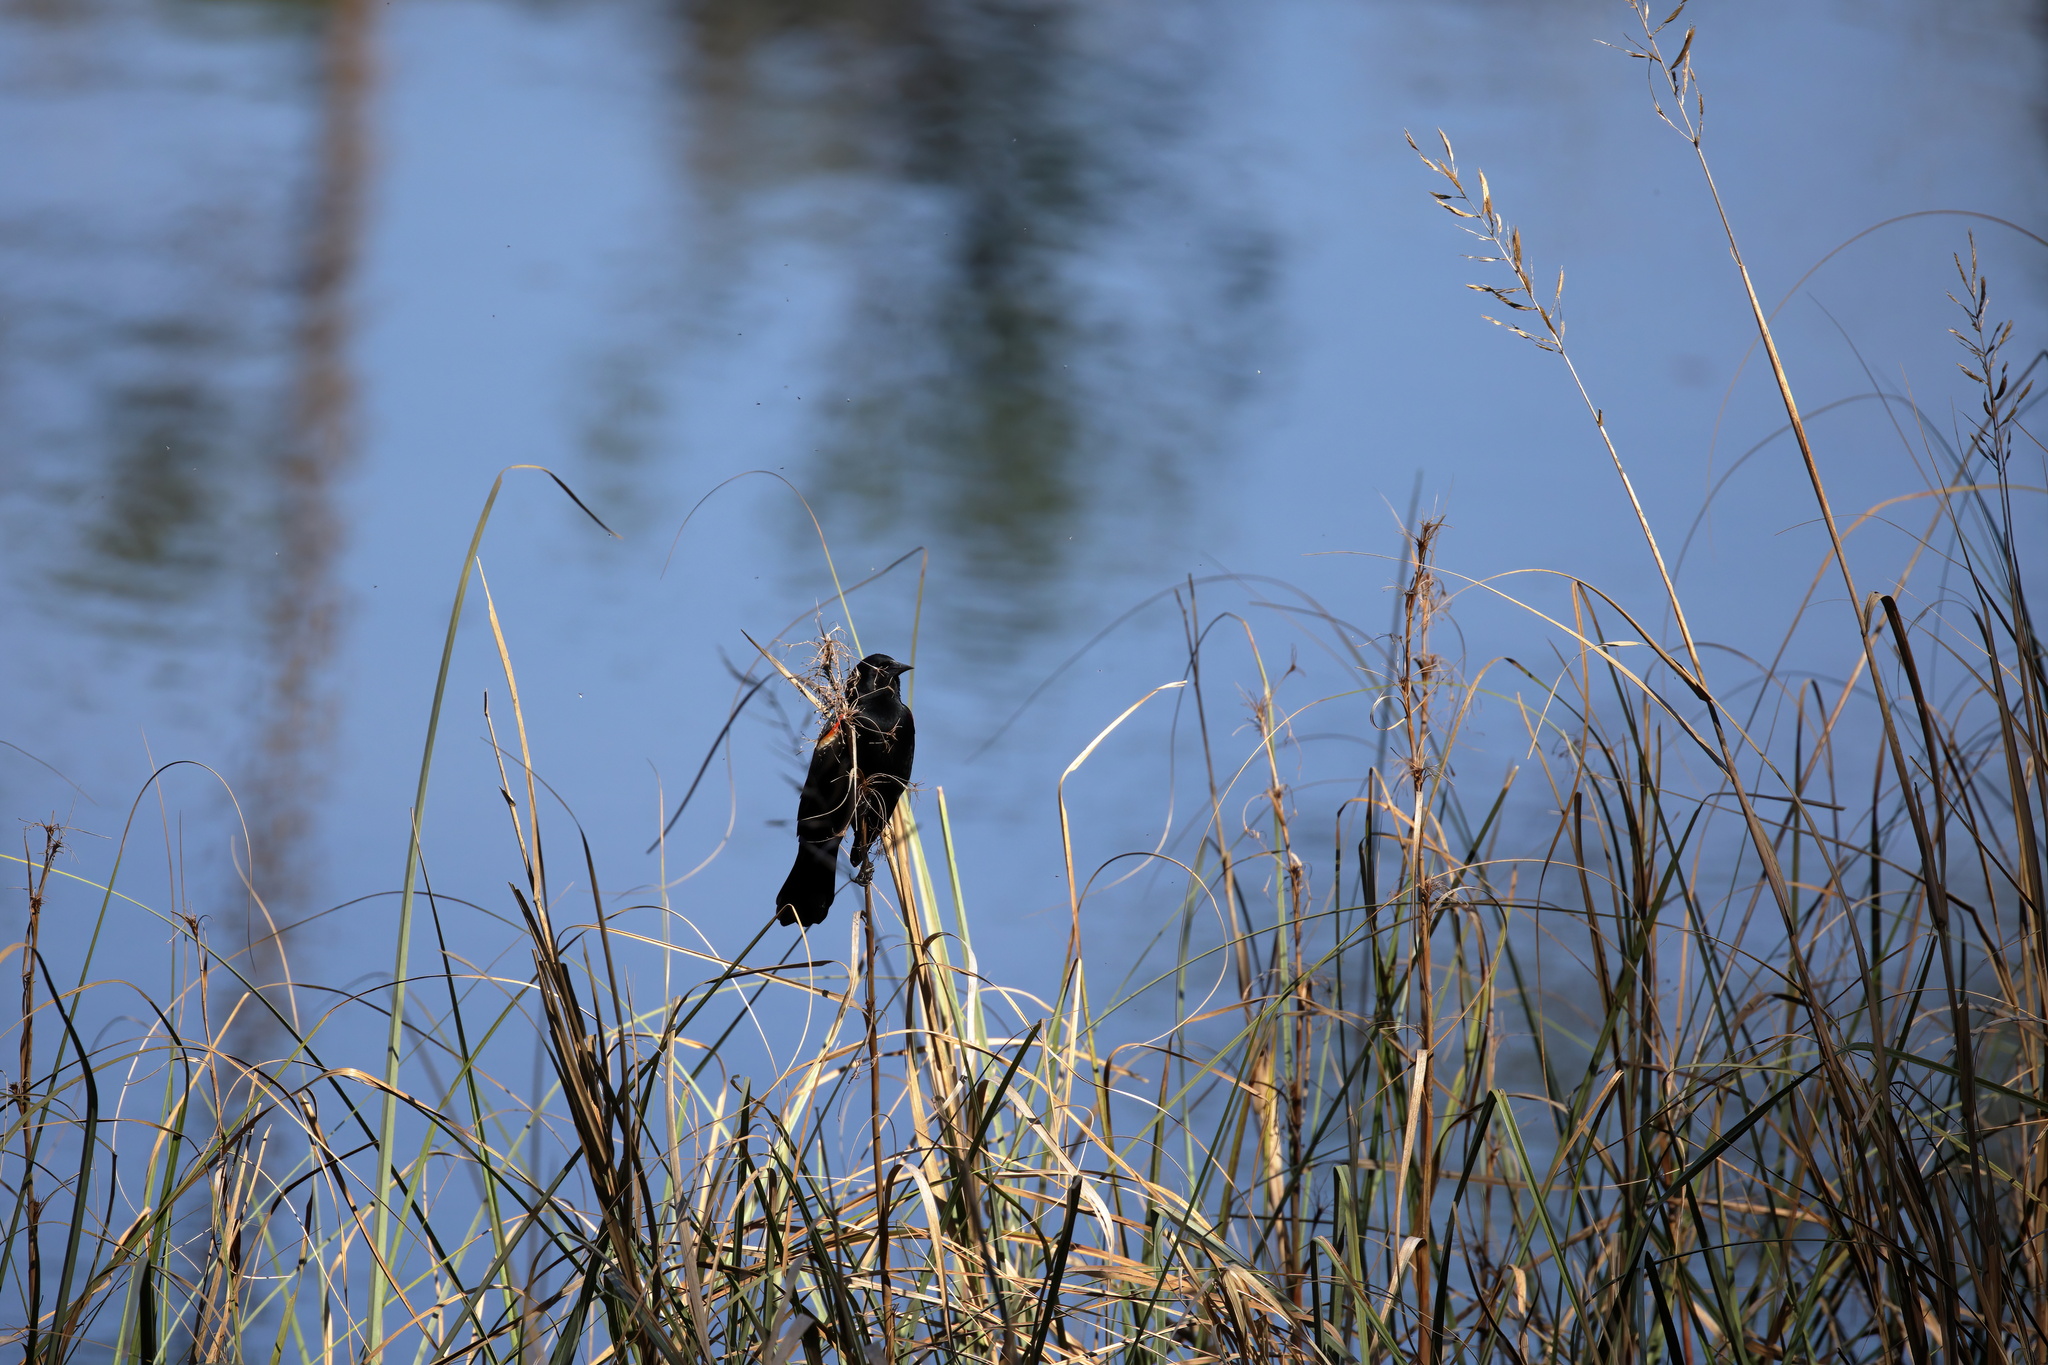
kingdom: Animalia
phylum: Chordata
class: Aves
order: Passeriformes
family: Icteridae
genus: Agelaius
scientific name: Agelaius phoeniceus
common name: Red-winged blackbird
